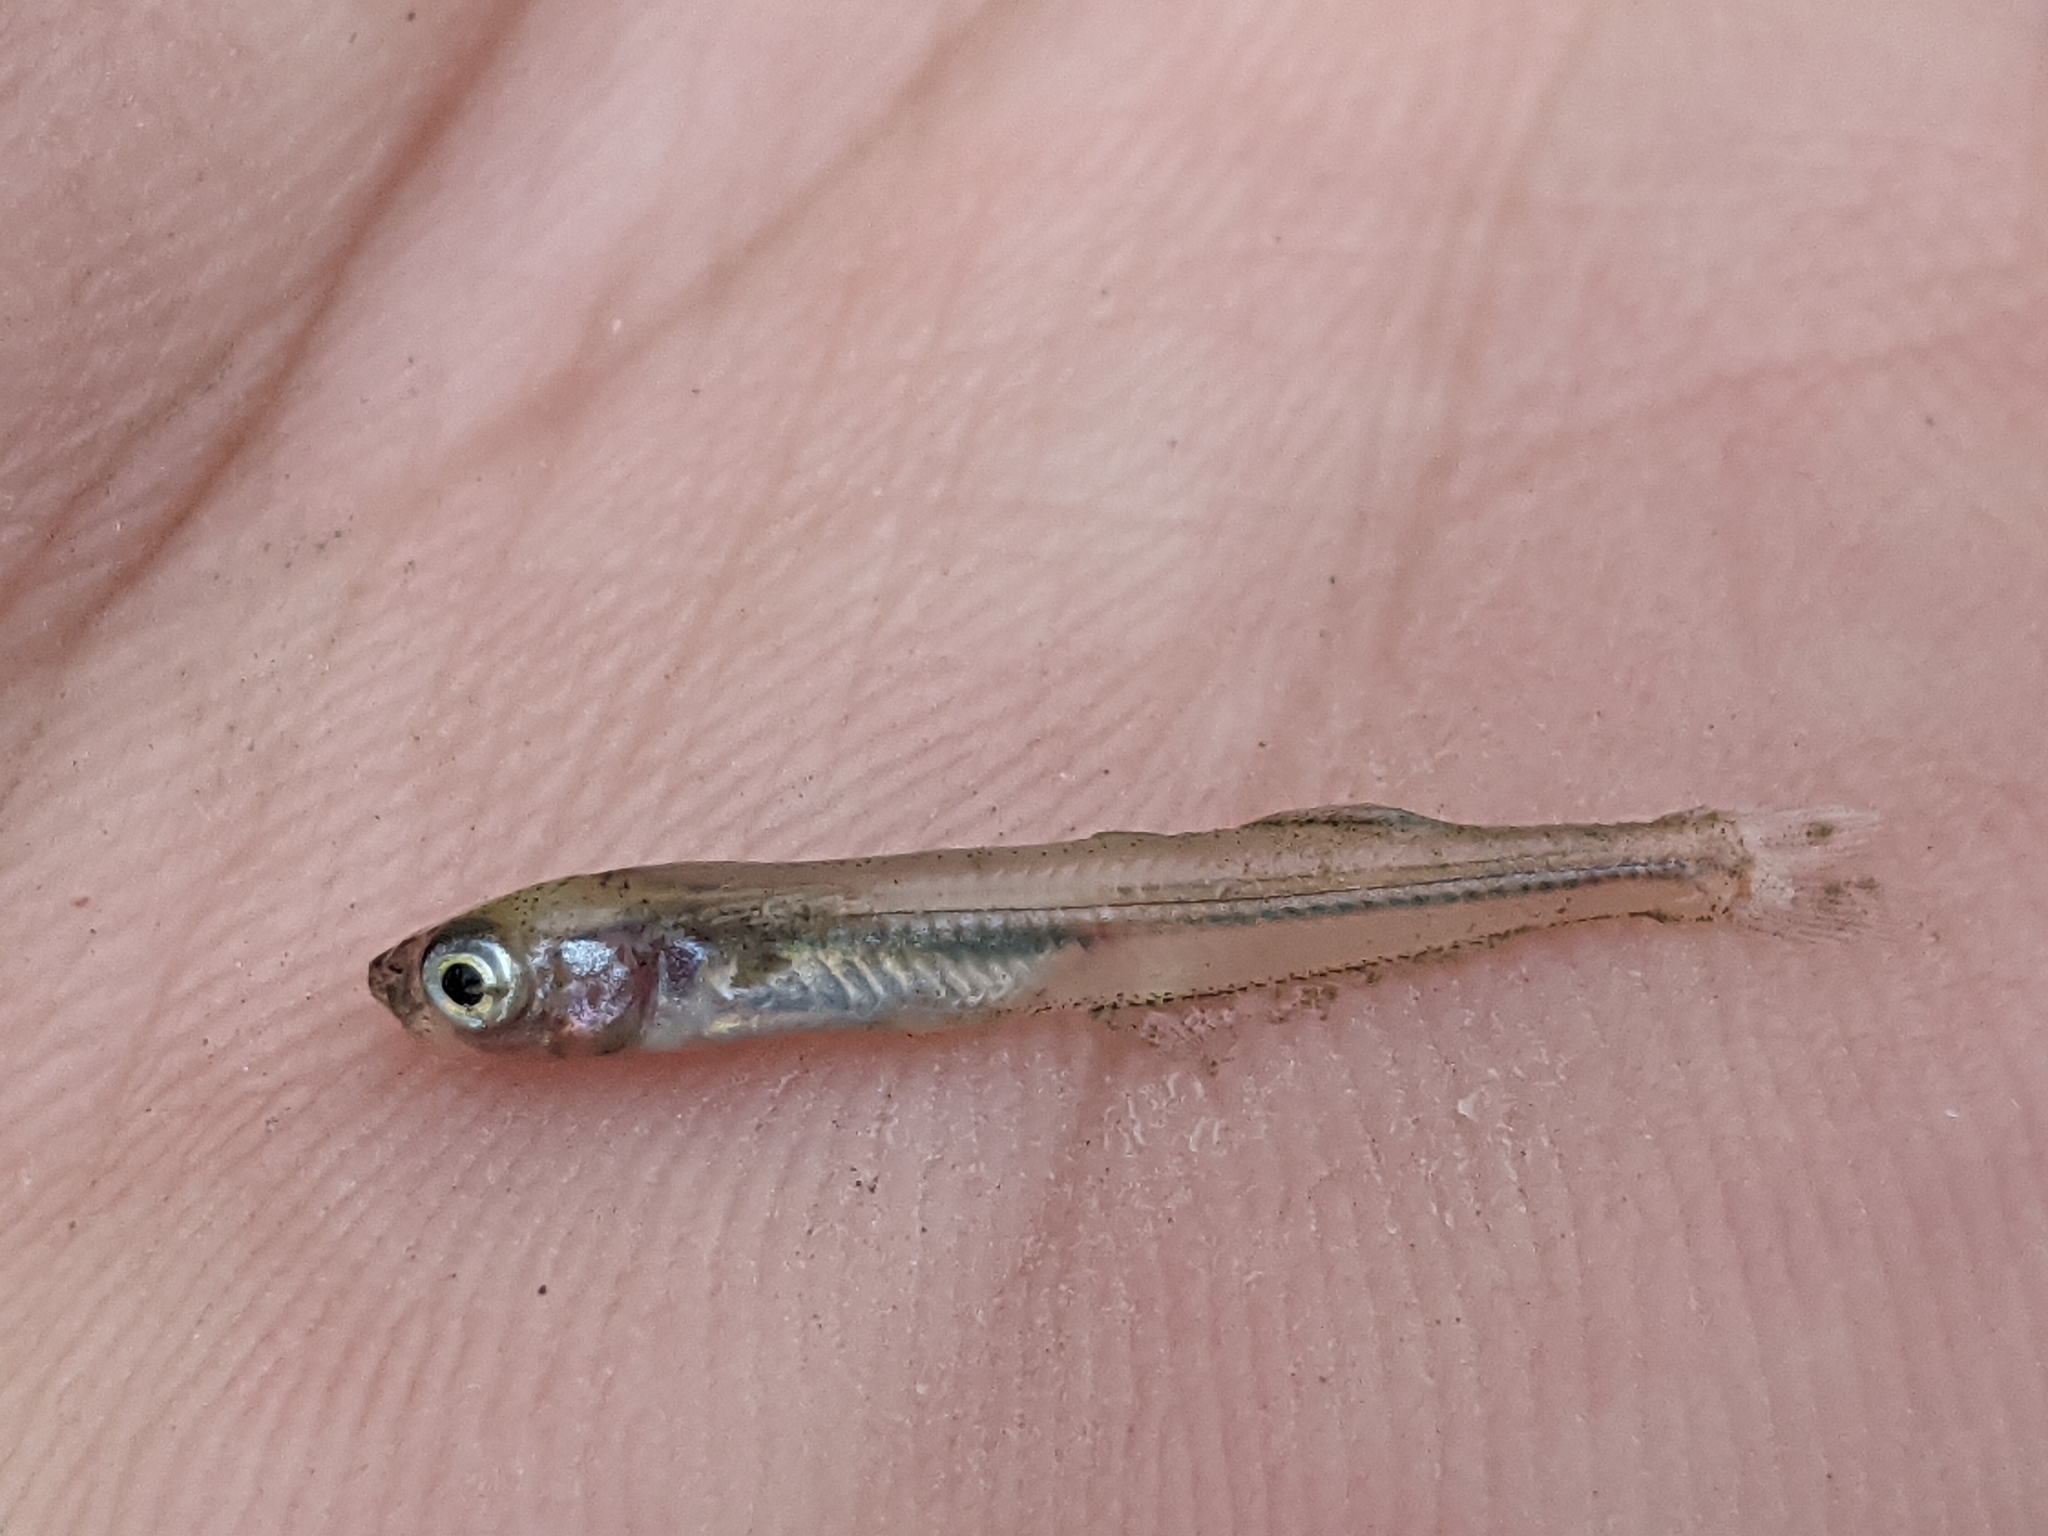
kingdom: Animalia
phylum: Chordata
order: Atheriniformes
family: Atherinopsidae
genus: Labidesthes
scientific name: Labidesthes sicculus
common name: Brook silverside
